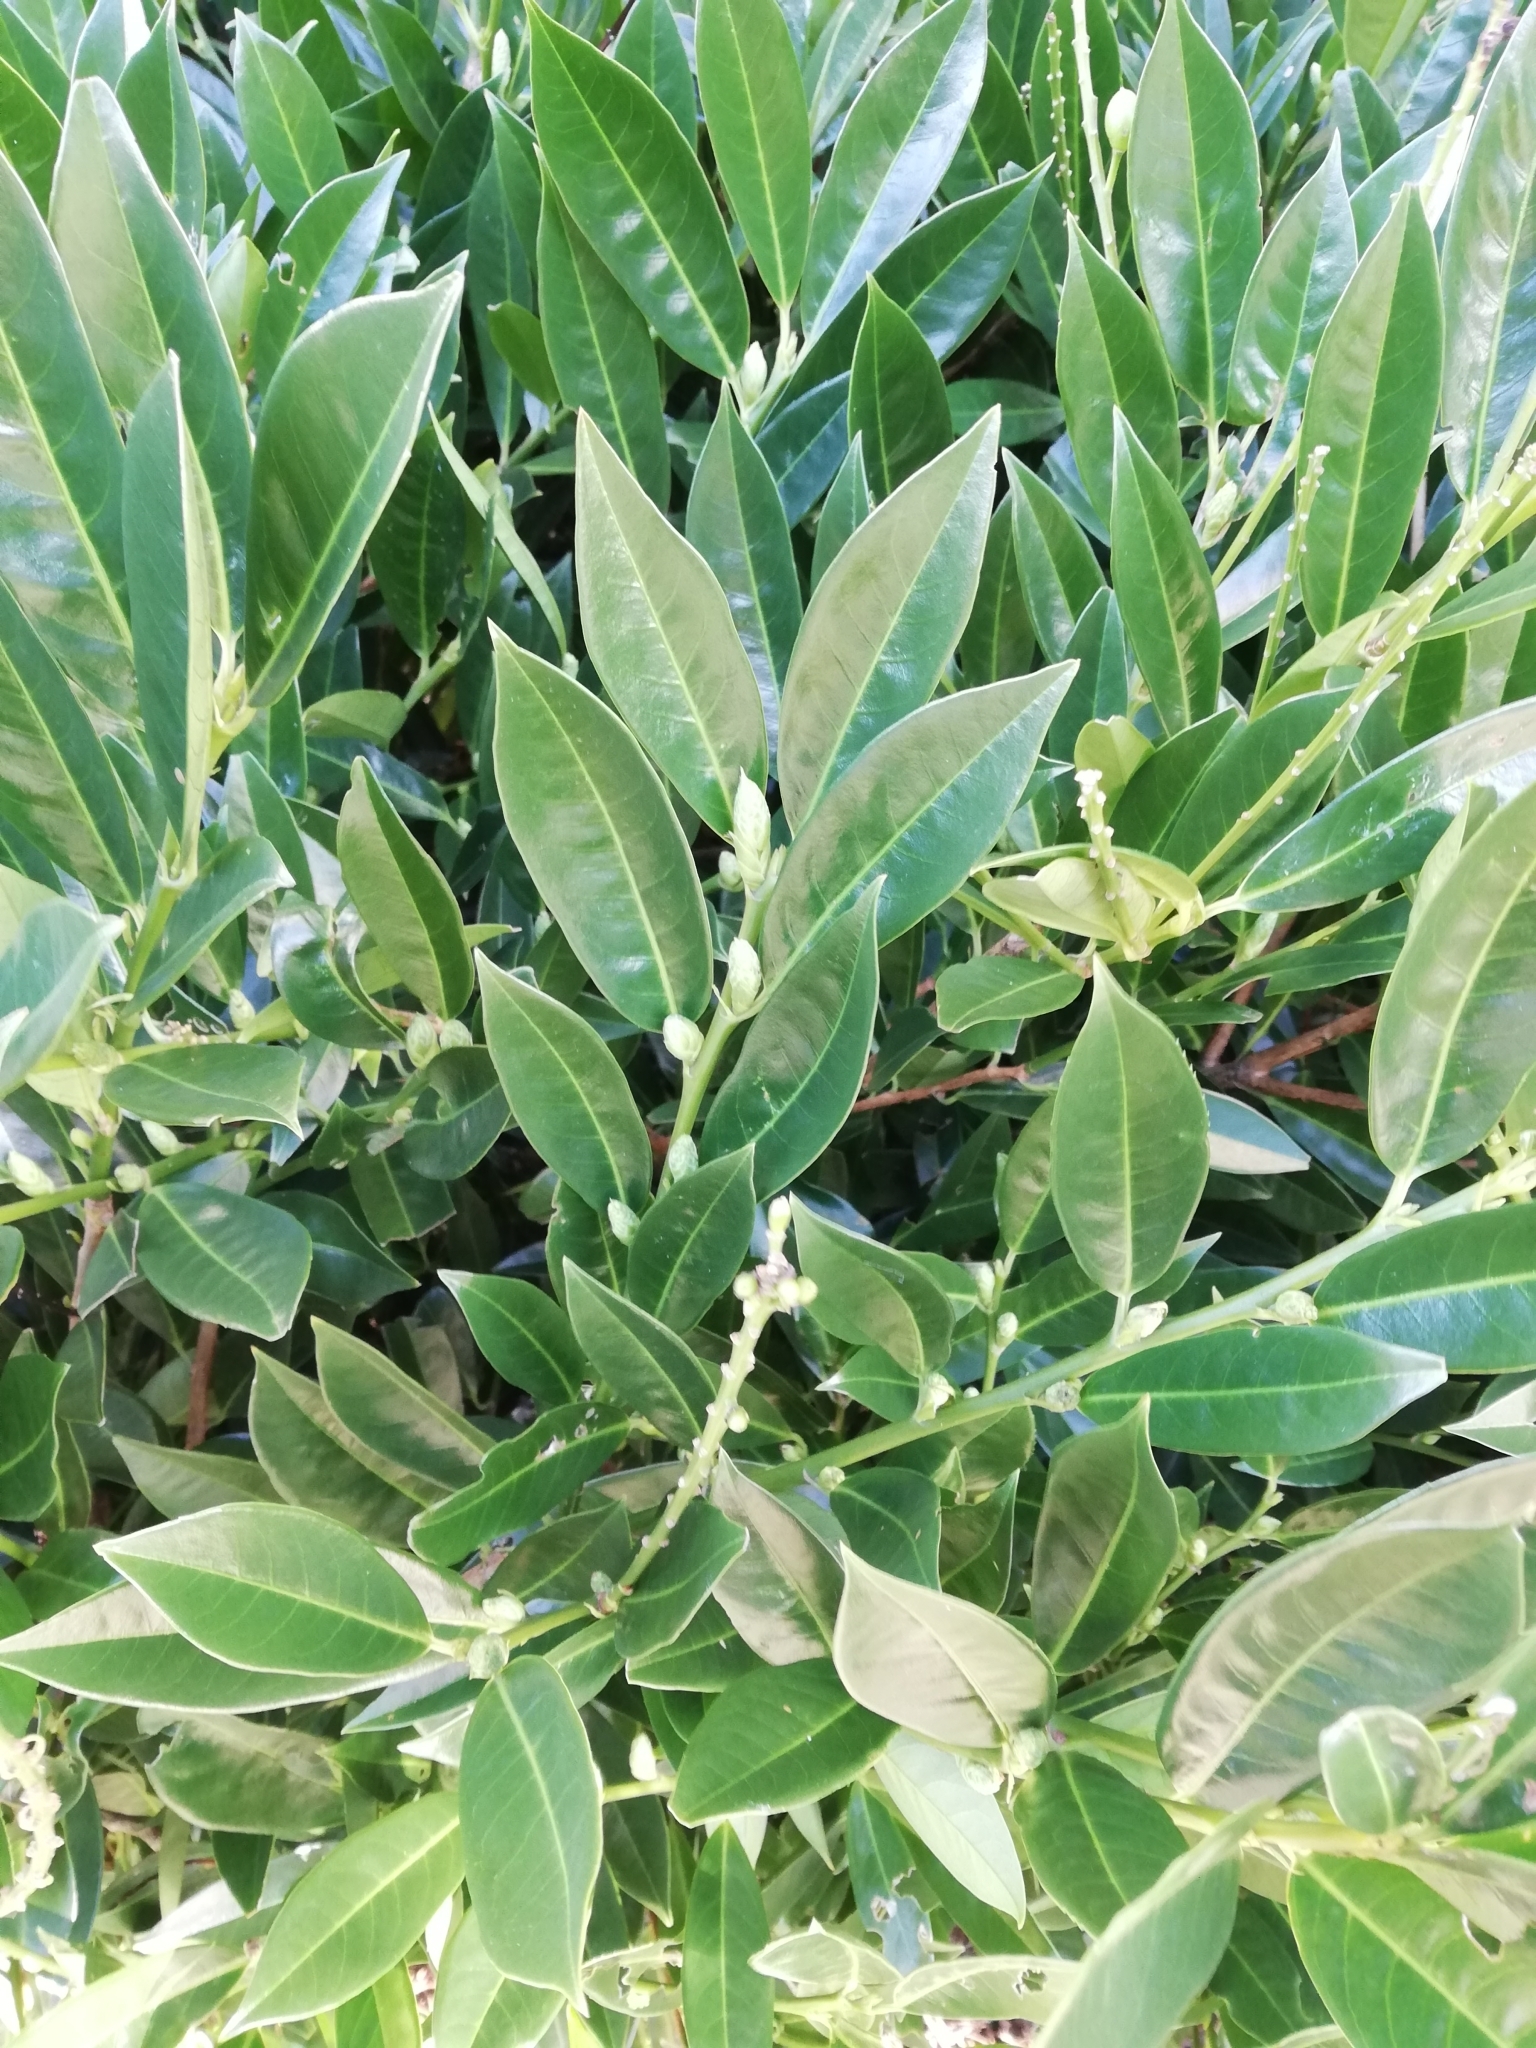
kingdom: Plantae
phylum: Tracheophyta
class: Magnoliopsida
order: Rosales
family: Rosaceae
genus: Prunus
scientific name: Prunus laurocerasus
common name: Cherry laurel
